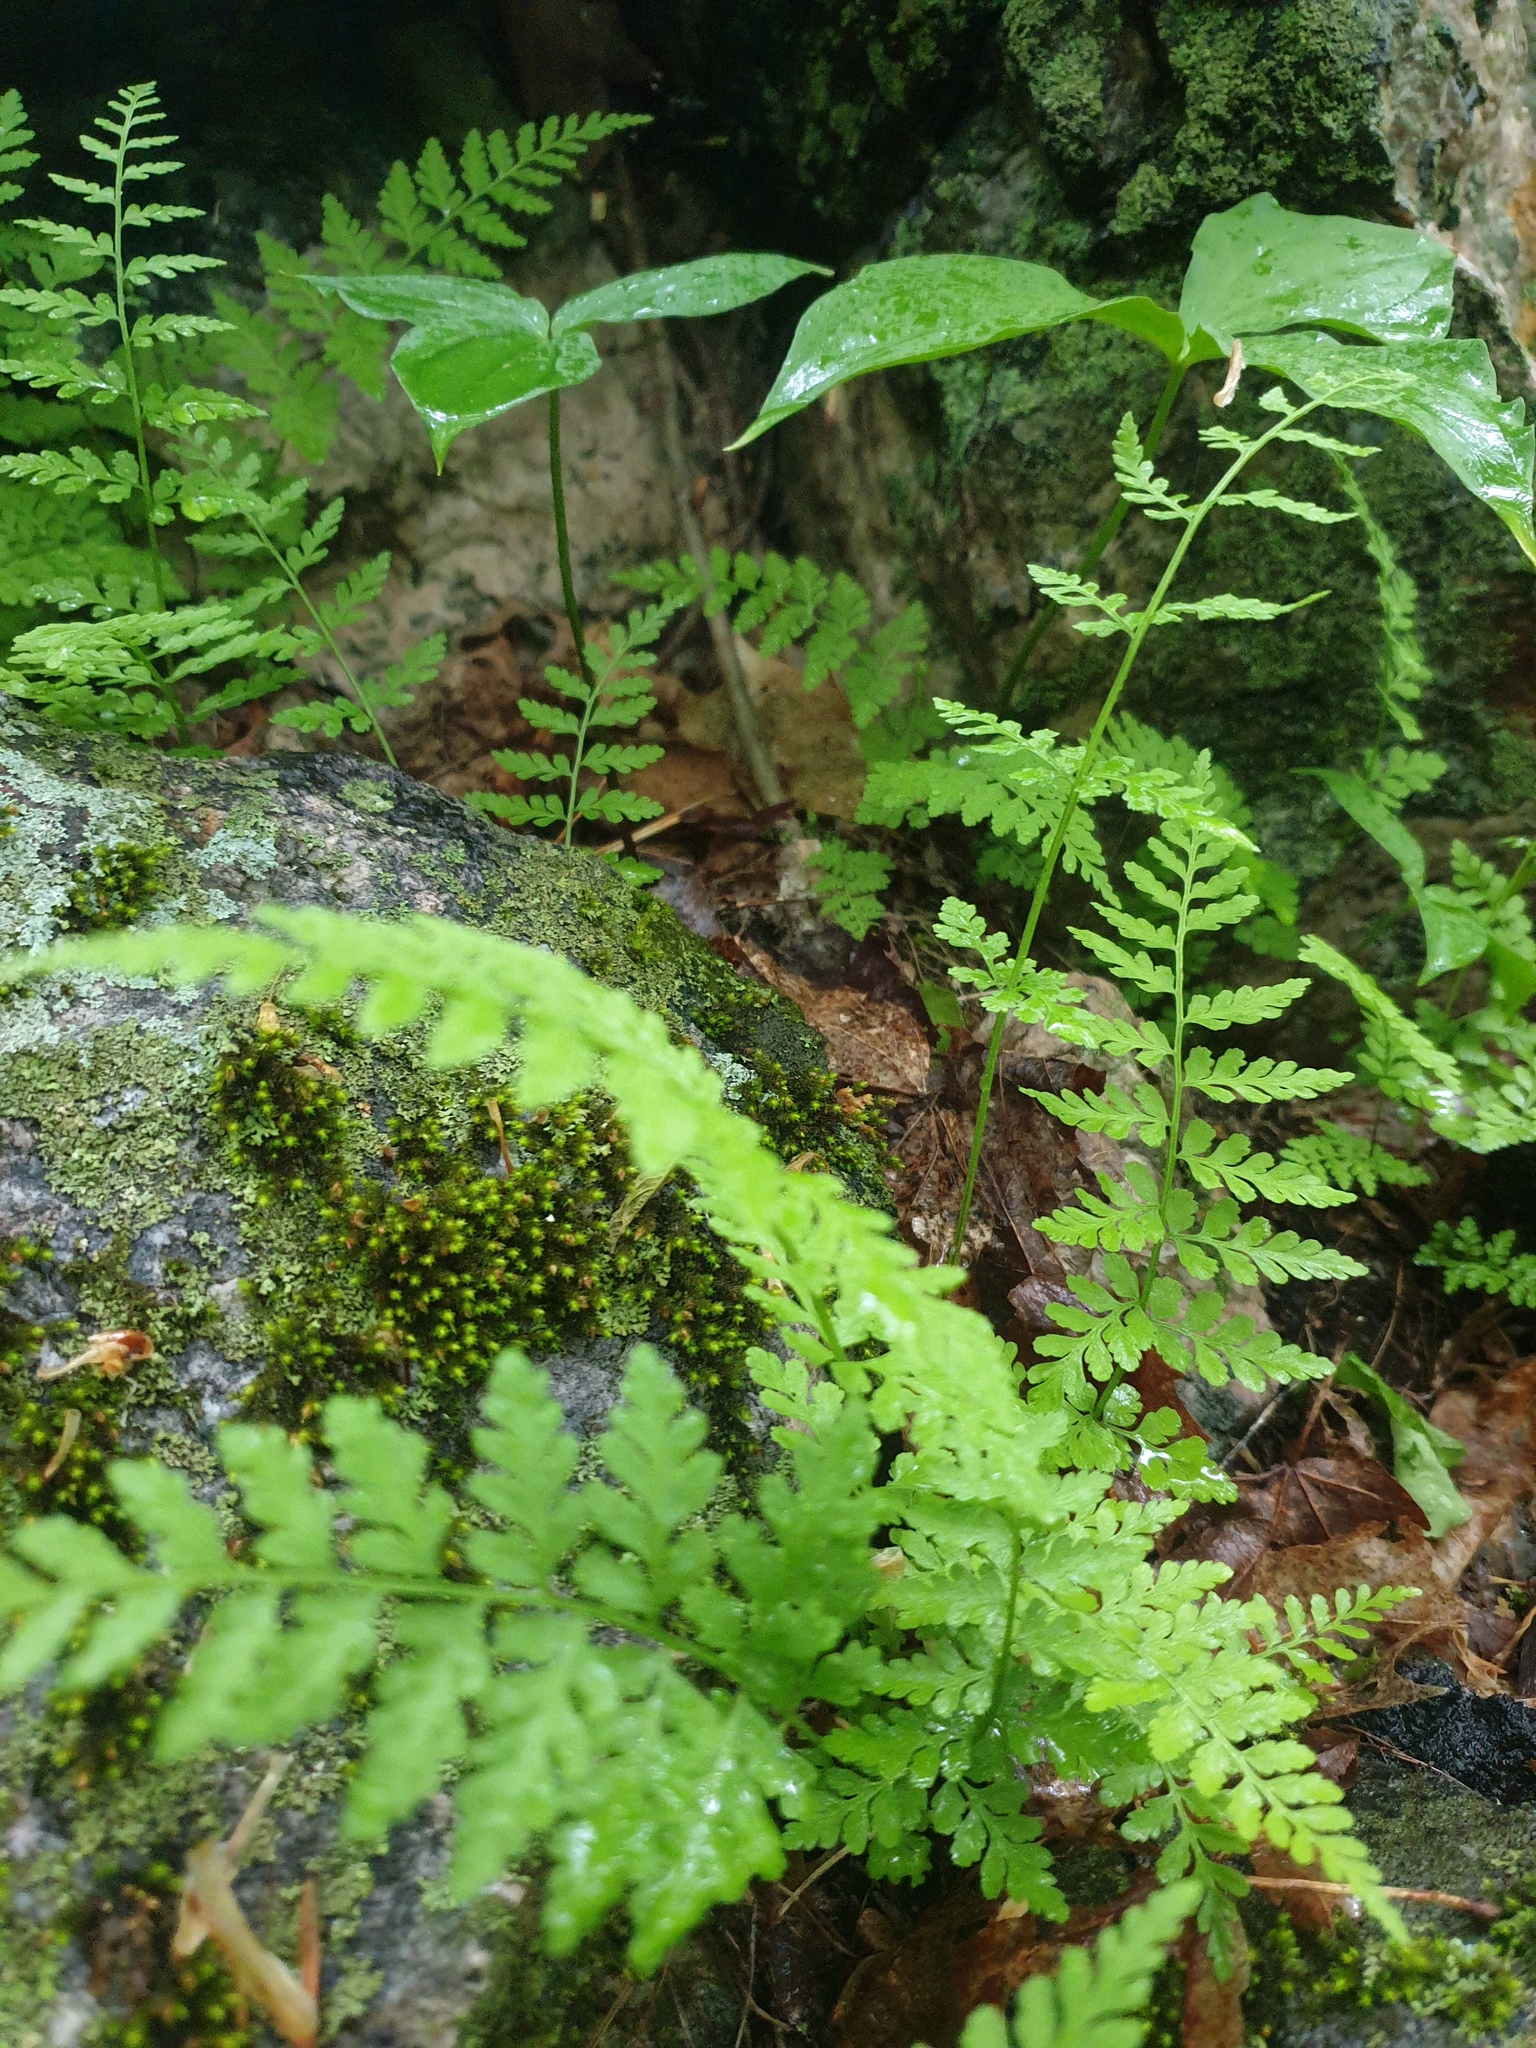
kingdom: Plantae
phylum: Tracheophyta
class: Polypodiopsida
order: Polypodiales
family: Cystopteridaceae
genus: Cystopteris
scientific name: Cystopteris tenuis
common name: Mackay's brittle fern
